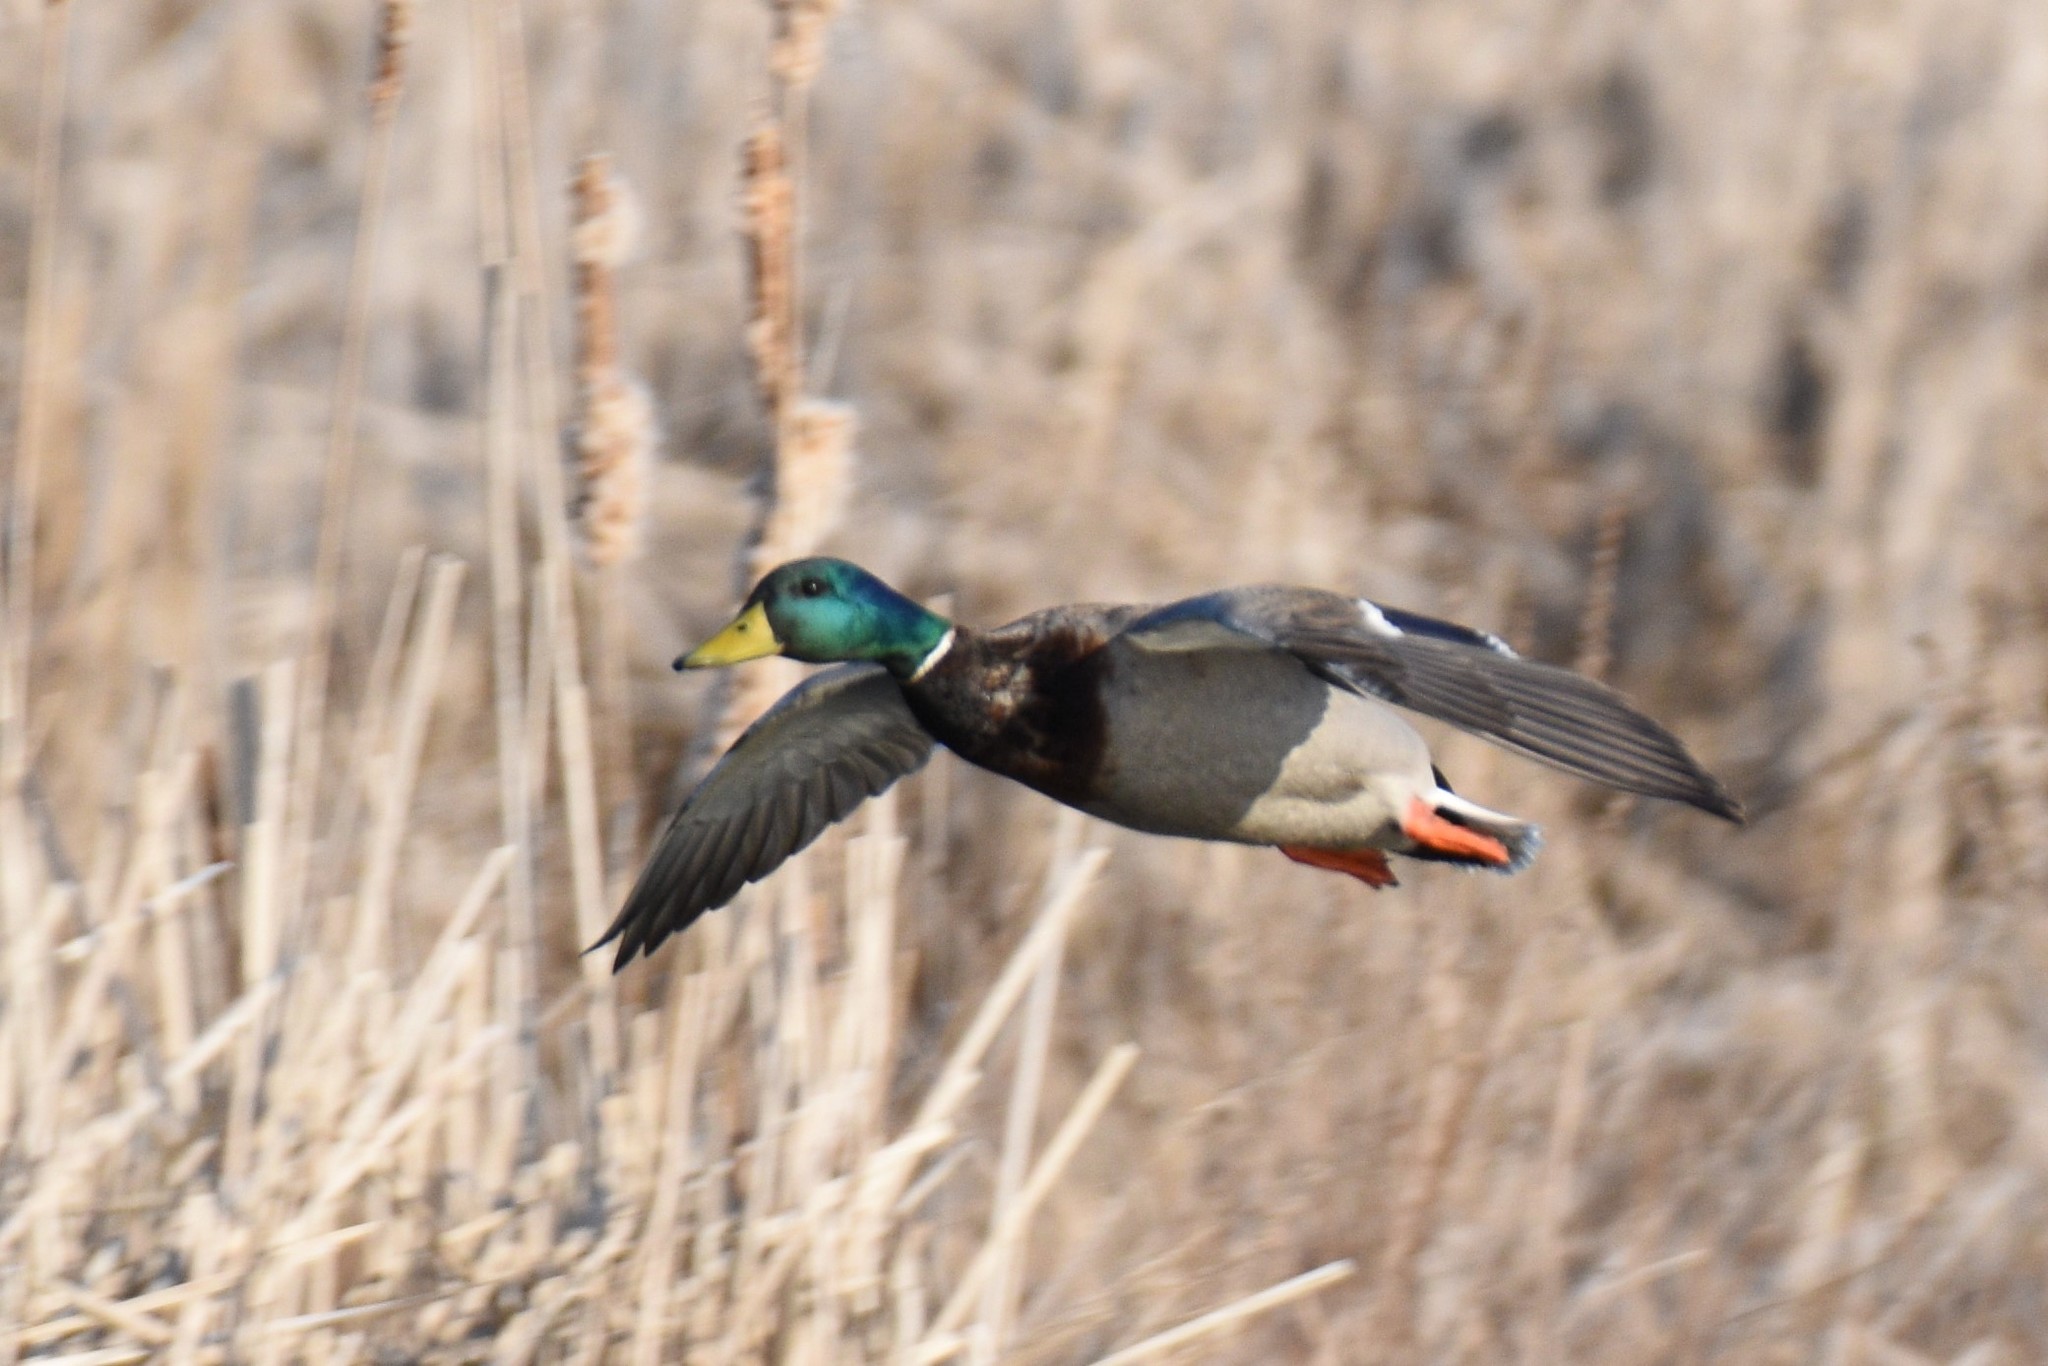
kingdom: Animalia
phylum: Chordata
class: Aves
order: Anseriformes
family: Anatidae
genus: Anas
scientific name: Anas platyrhynchos
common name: Mallard
